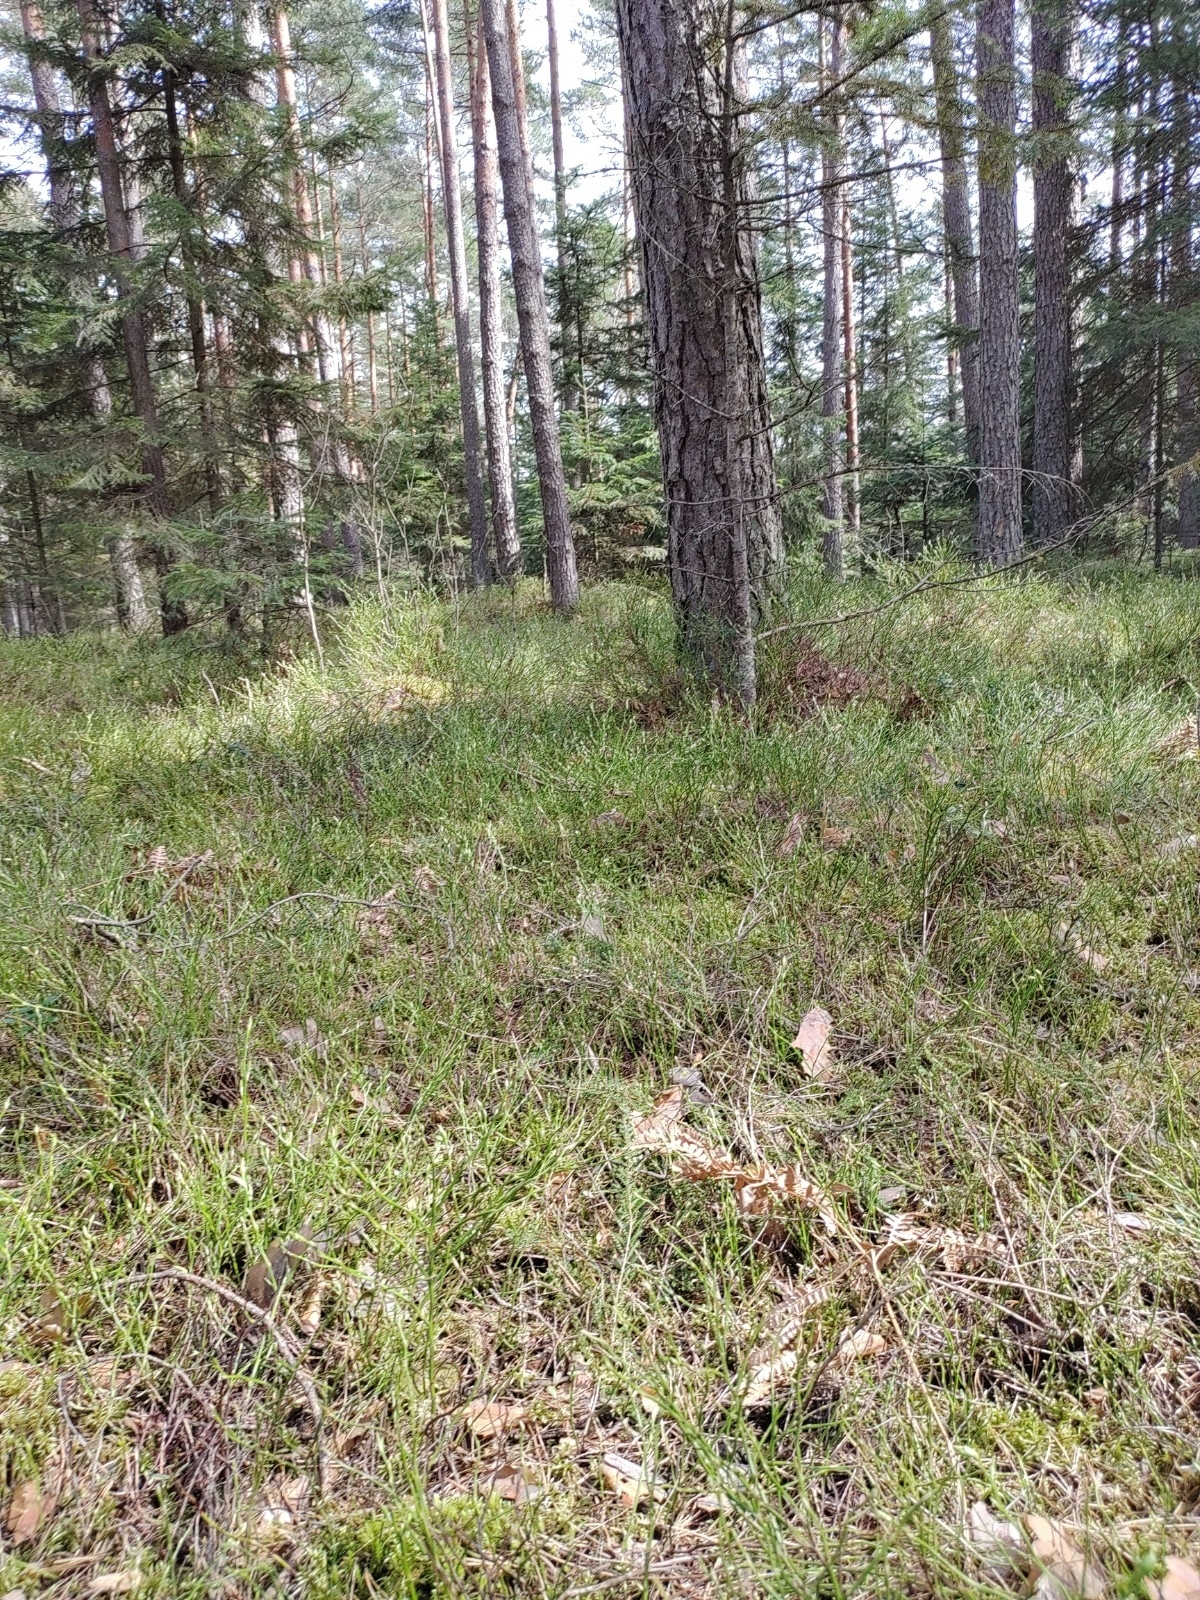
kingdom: Plantae
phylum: Bryophyta
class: Bryopsida
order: Aulacomniales
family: Aulacomniaceae
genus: Aulacomnium
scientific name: Aulacomnium palustre
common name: Bog groove-moss
